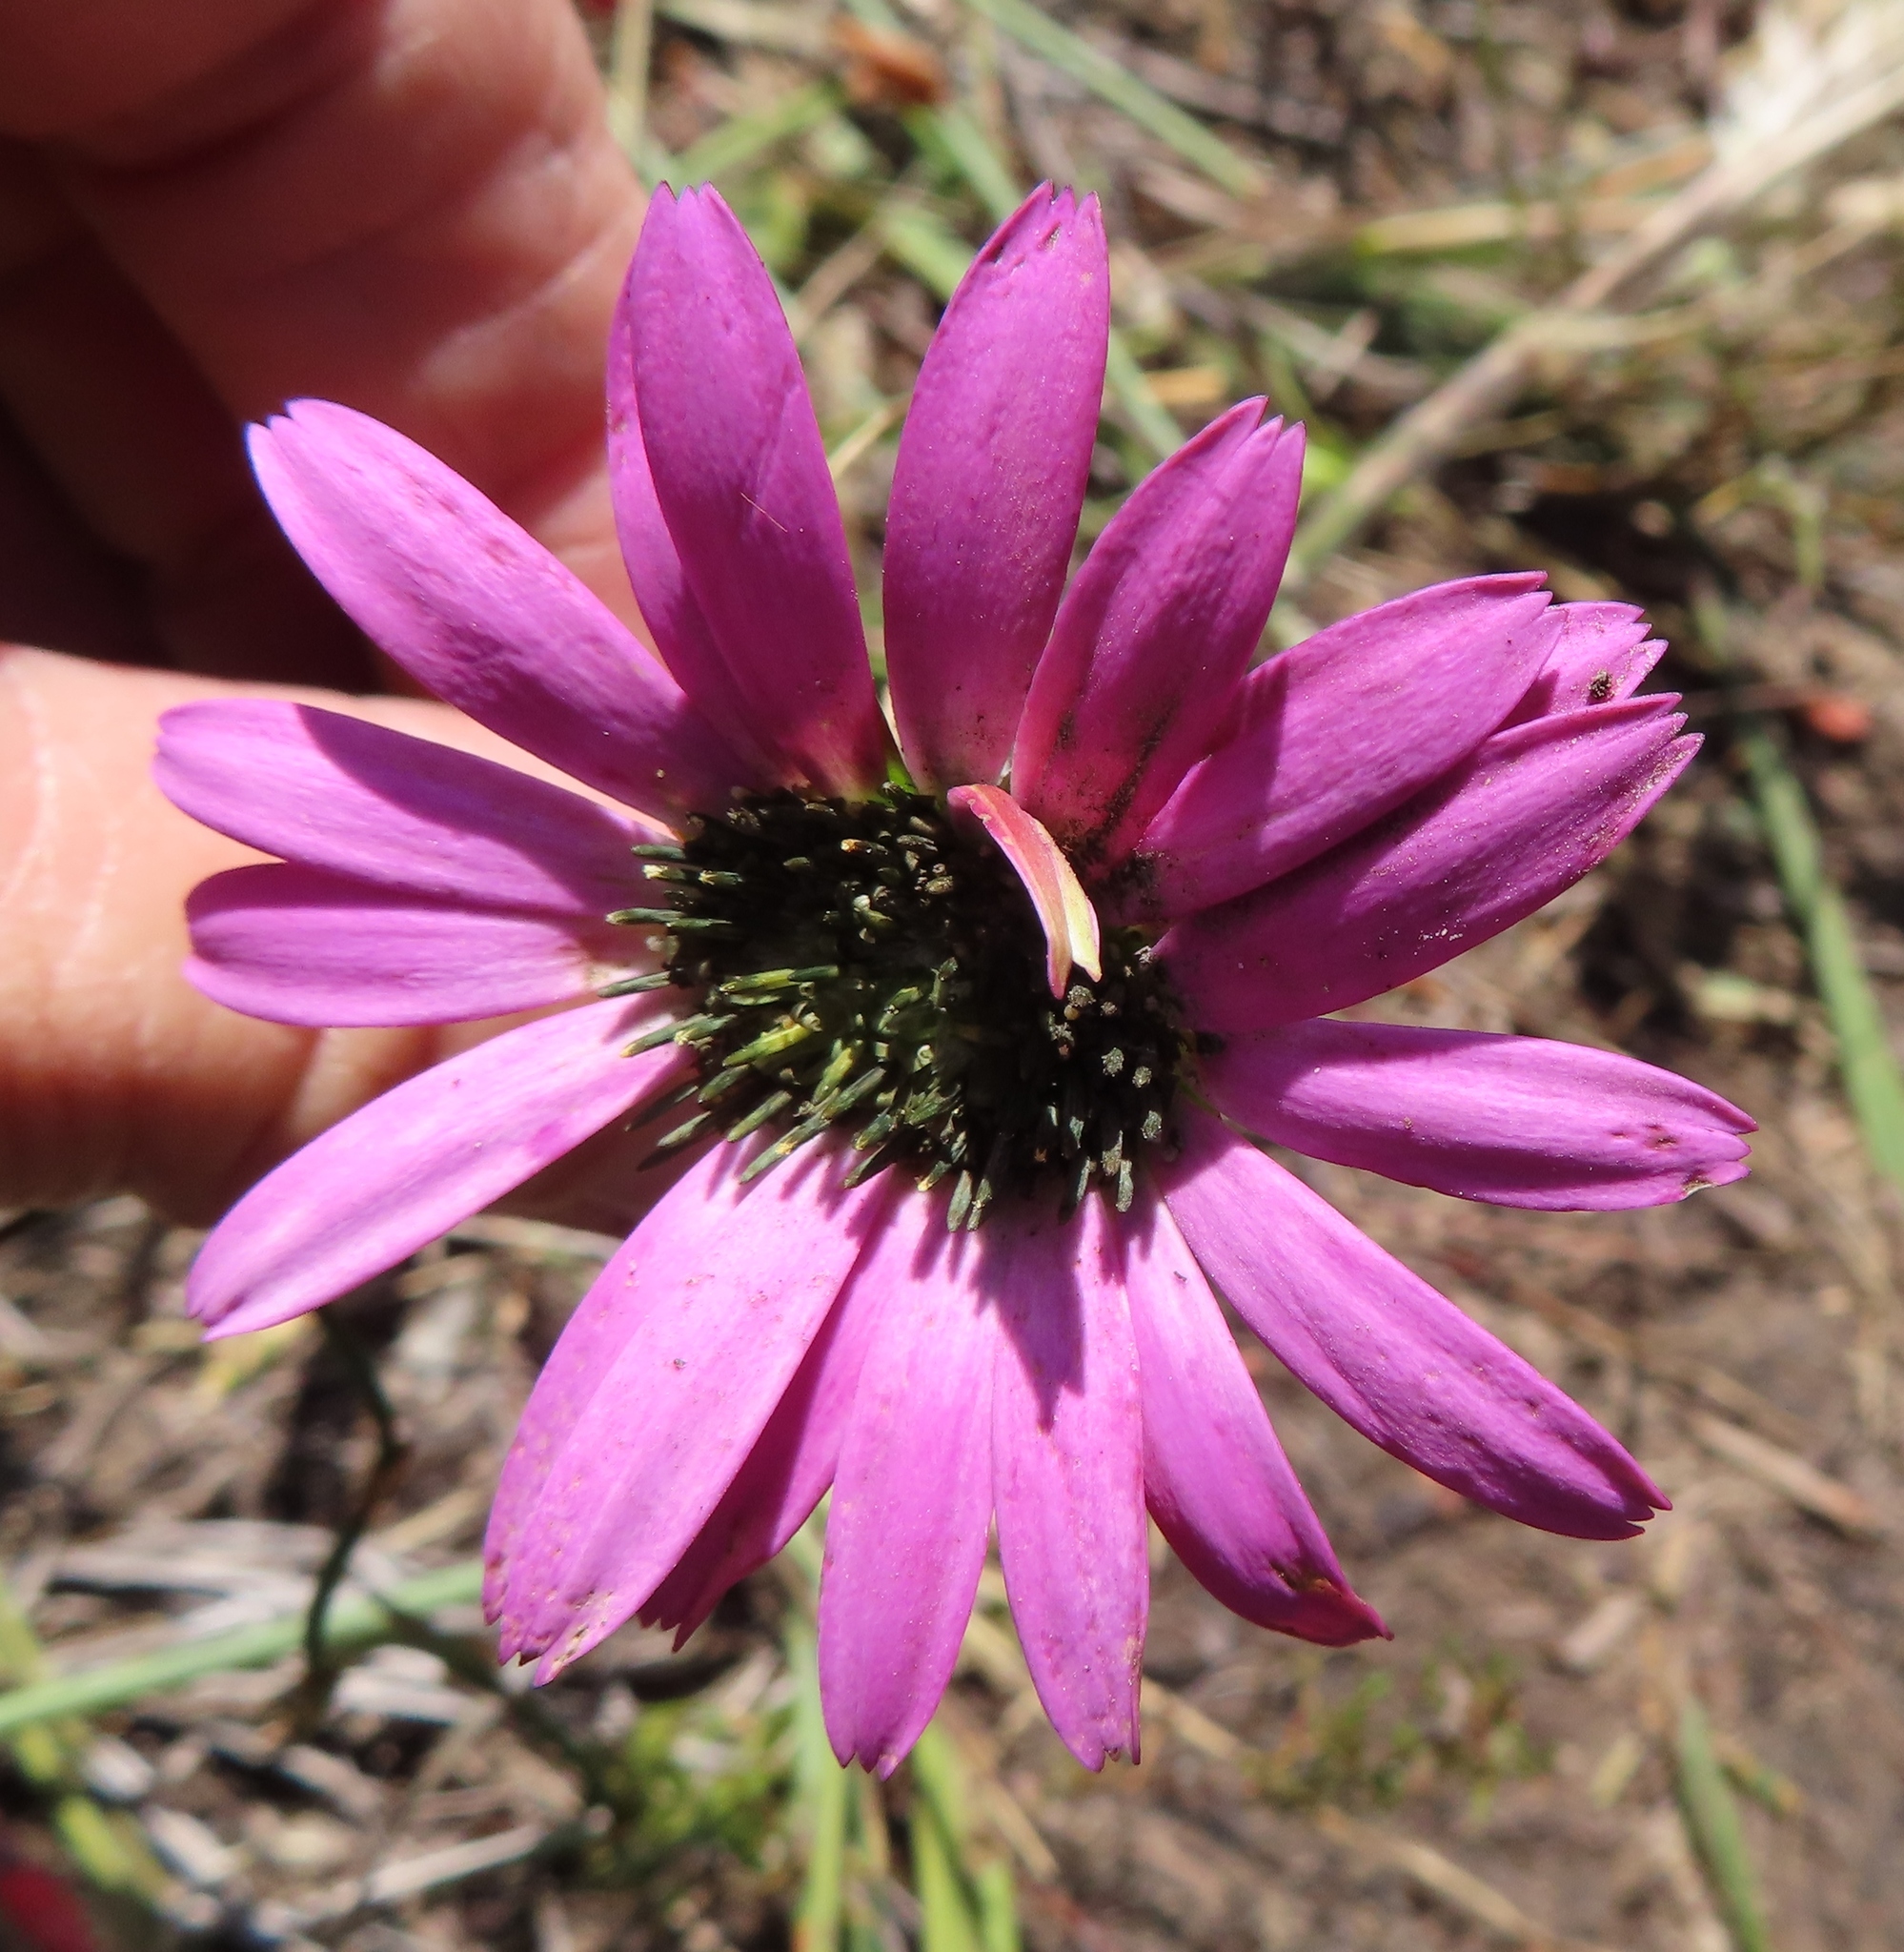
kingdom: Plantae
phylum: Tracheophyta
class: Magnoliopsida
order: Asterales
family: Asteraceae
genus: Gerbera
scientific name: Gerbera crocea
